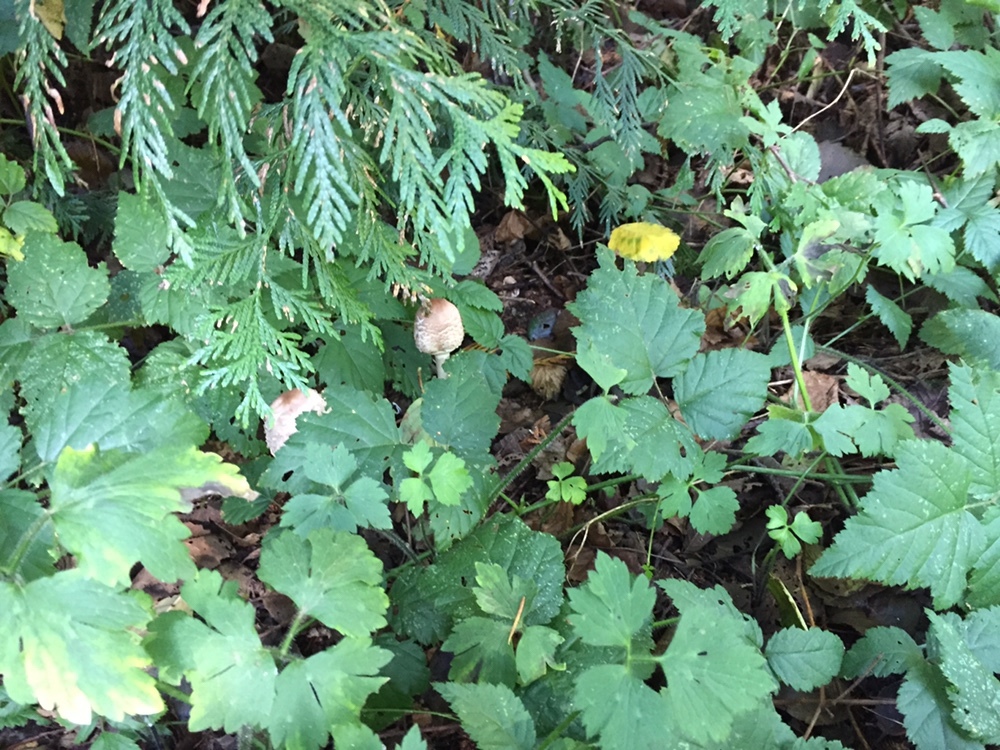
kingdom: Fungi
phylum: Basidiomycota
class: Agaricomycetes
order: Agaricales
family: Agaricaceae
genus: Chlorophyllum
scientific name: Chlorophyllum olivieri
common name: Conifer parasol
